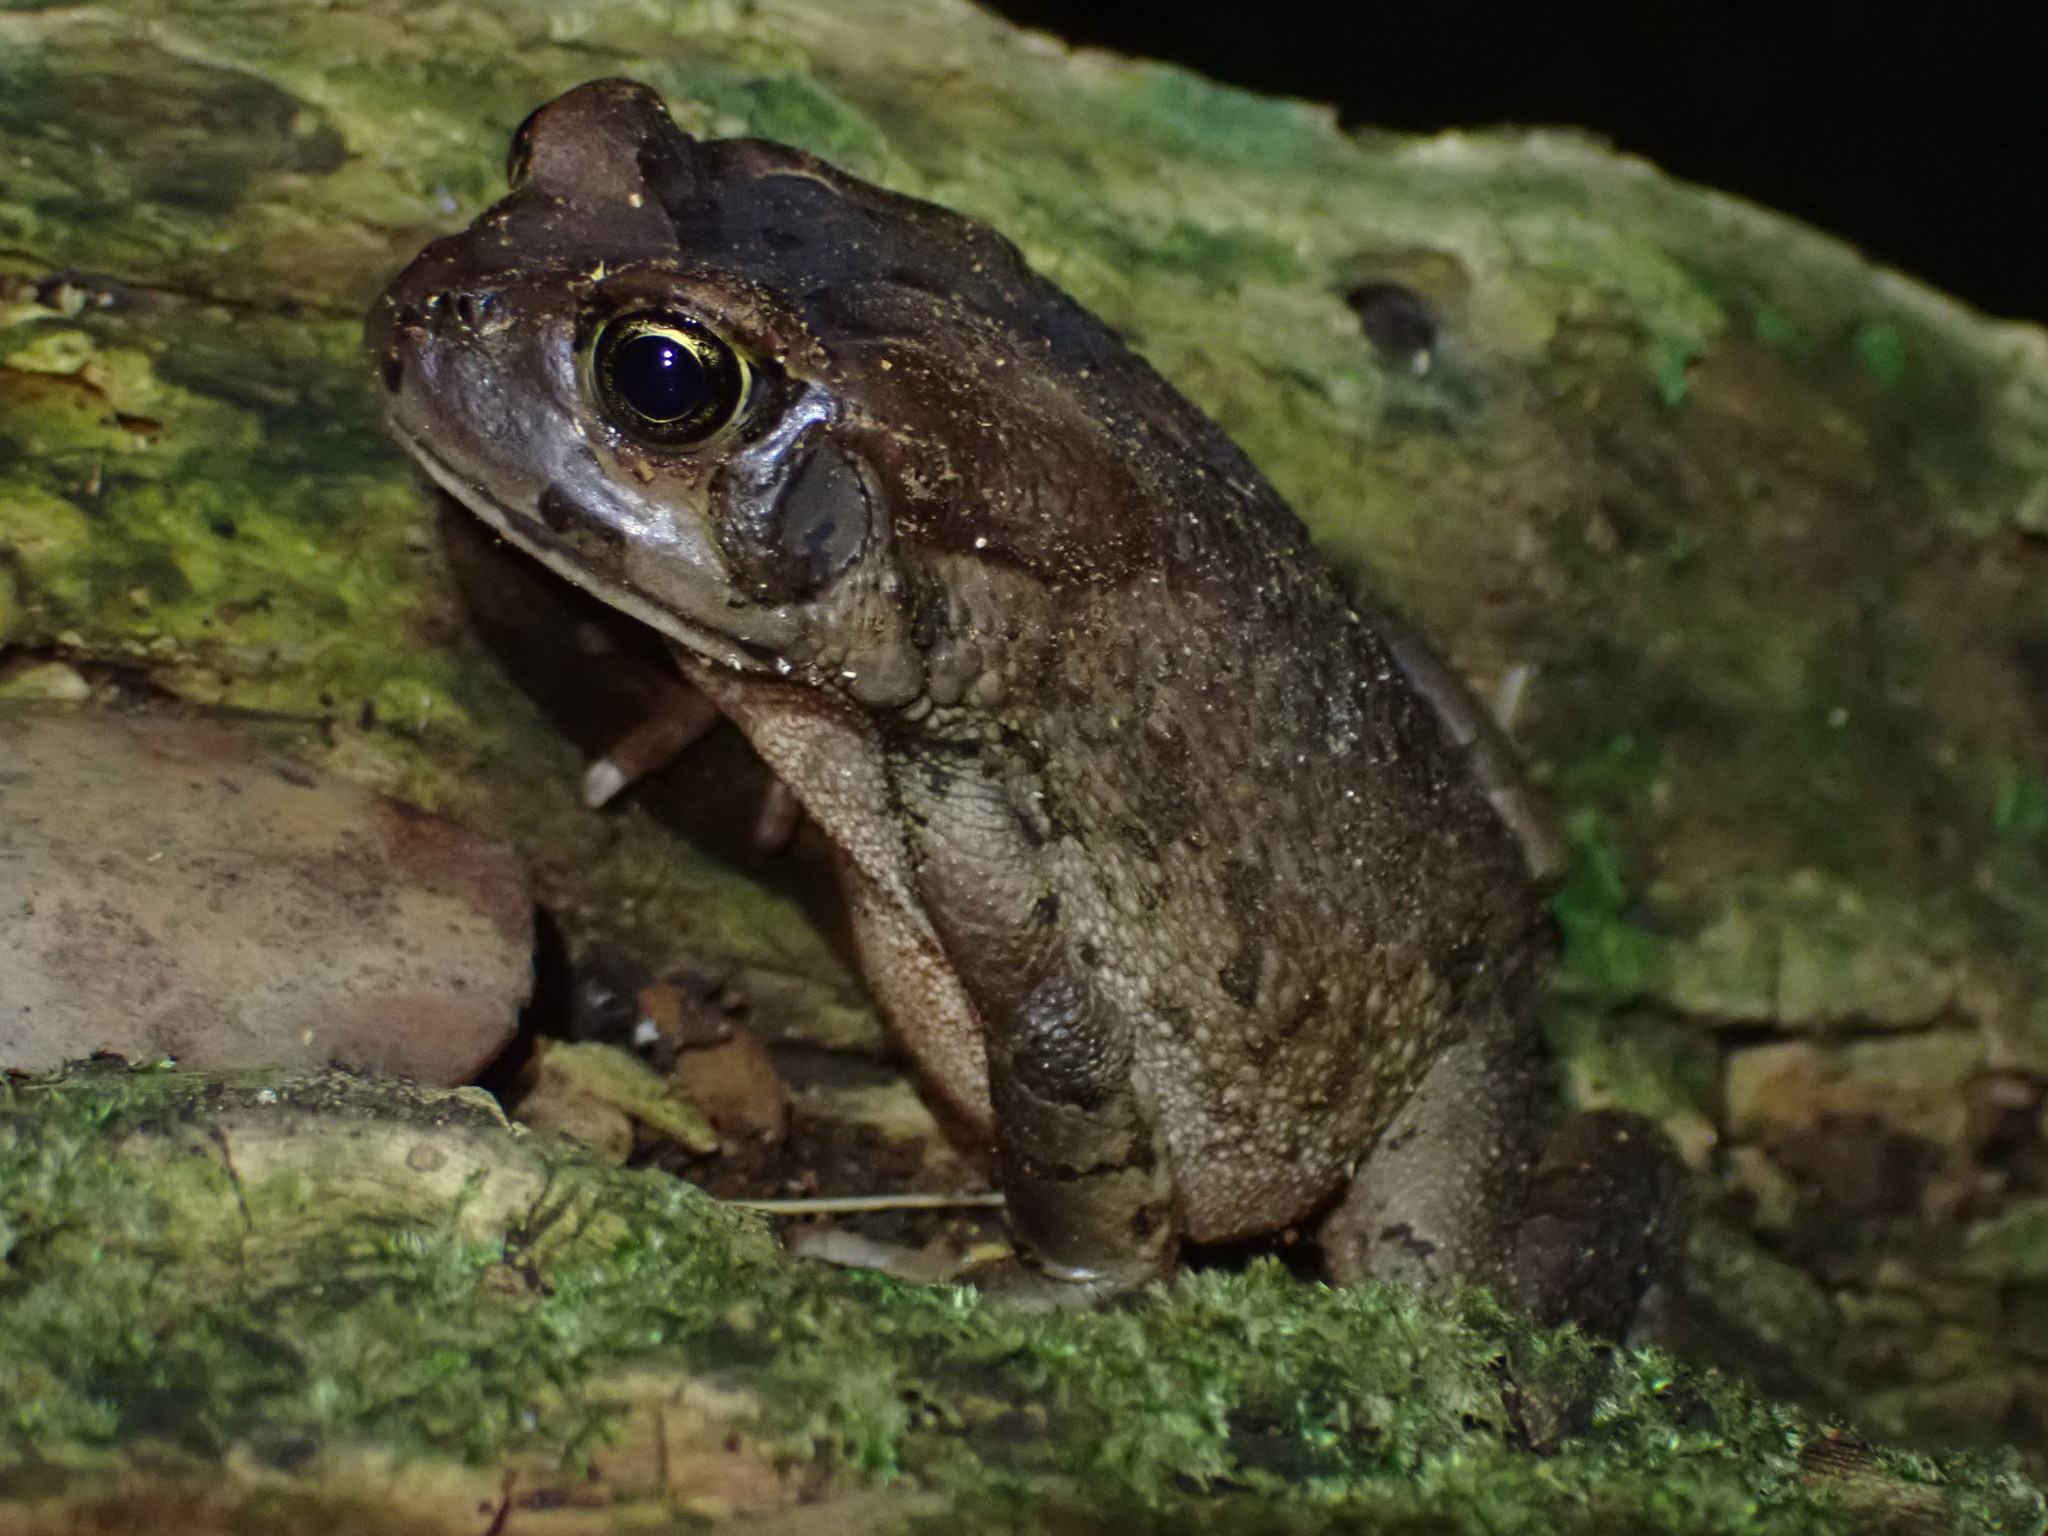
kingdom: Animalia
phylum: Chordata
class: Amphibia
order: Anura
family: Bufonidae
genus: Sclerophrys
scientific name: Sclerophrys capensis
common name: Ranger’s toad
